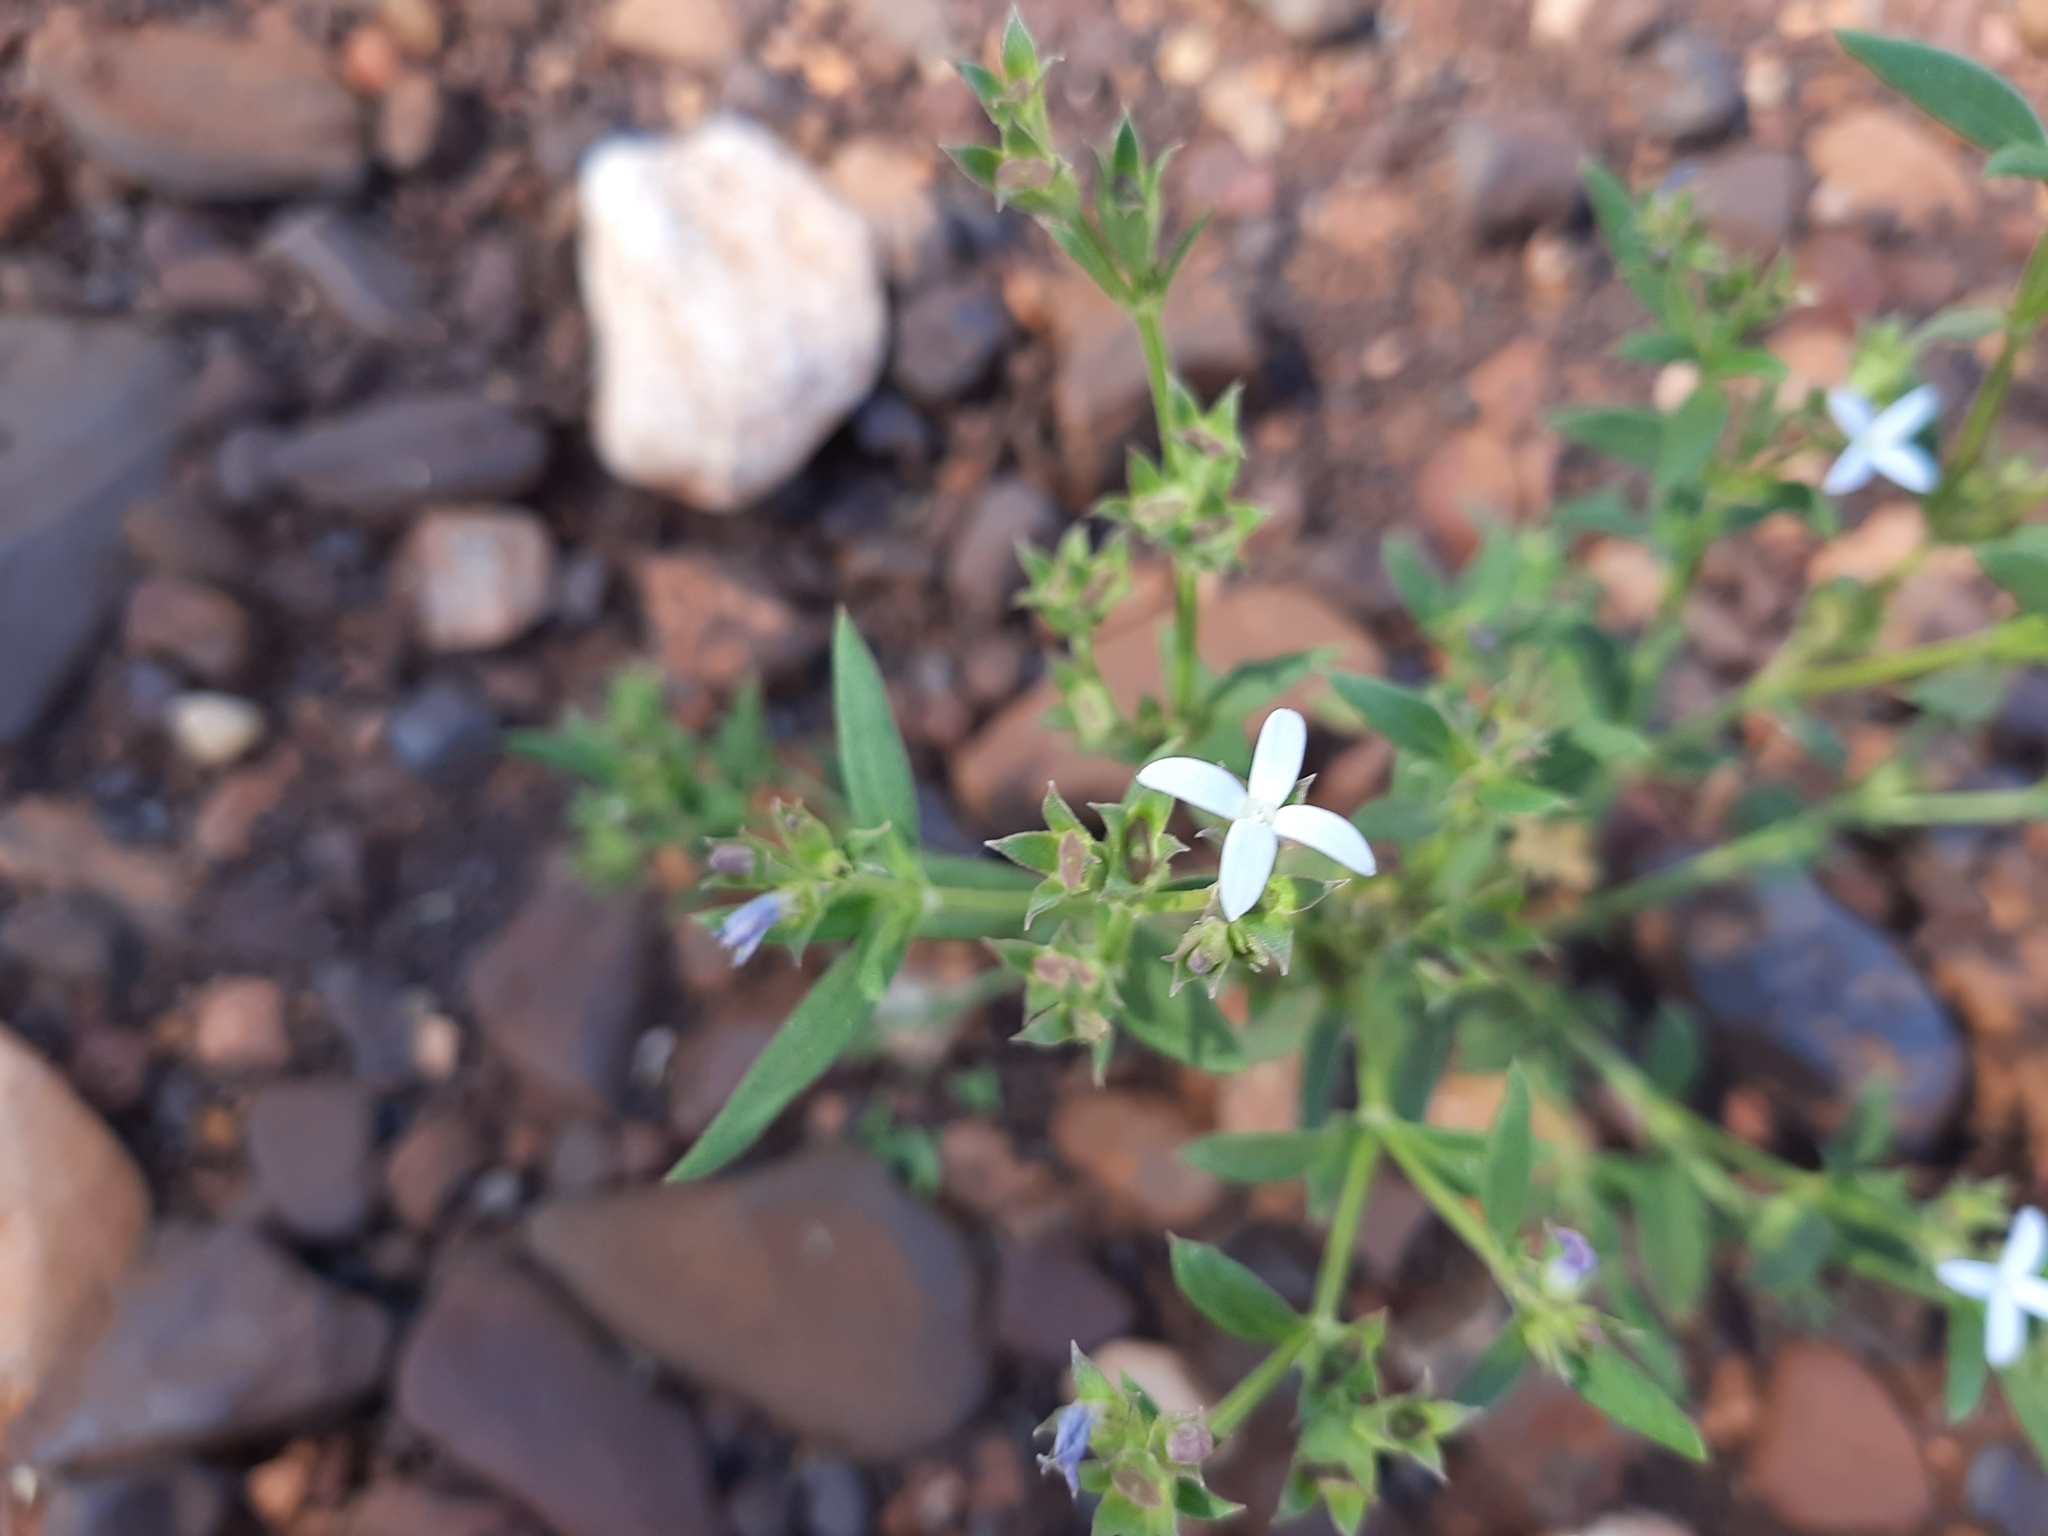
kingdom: Plantae
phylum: Tracheophyta
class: Magnoliopsida
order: Gentianales
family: Rubiaceae
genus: Dolichocarpa
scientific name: Dolichocarpa crouchiana
